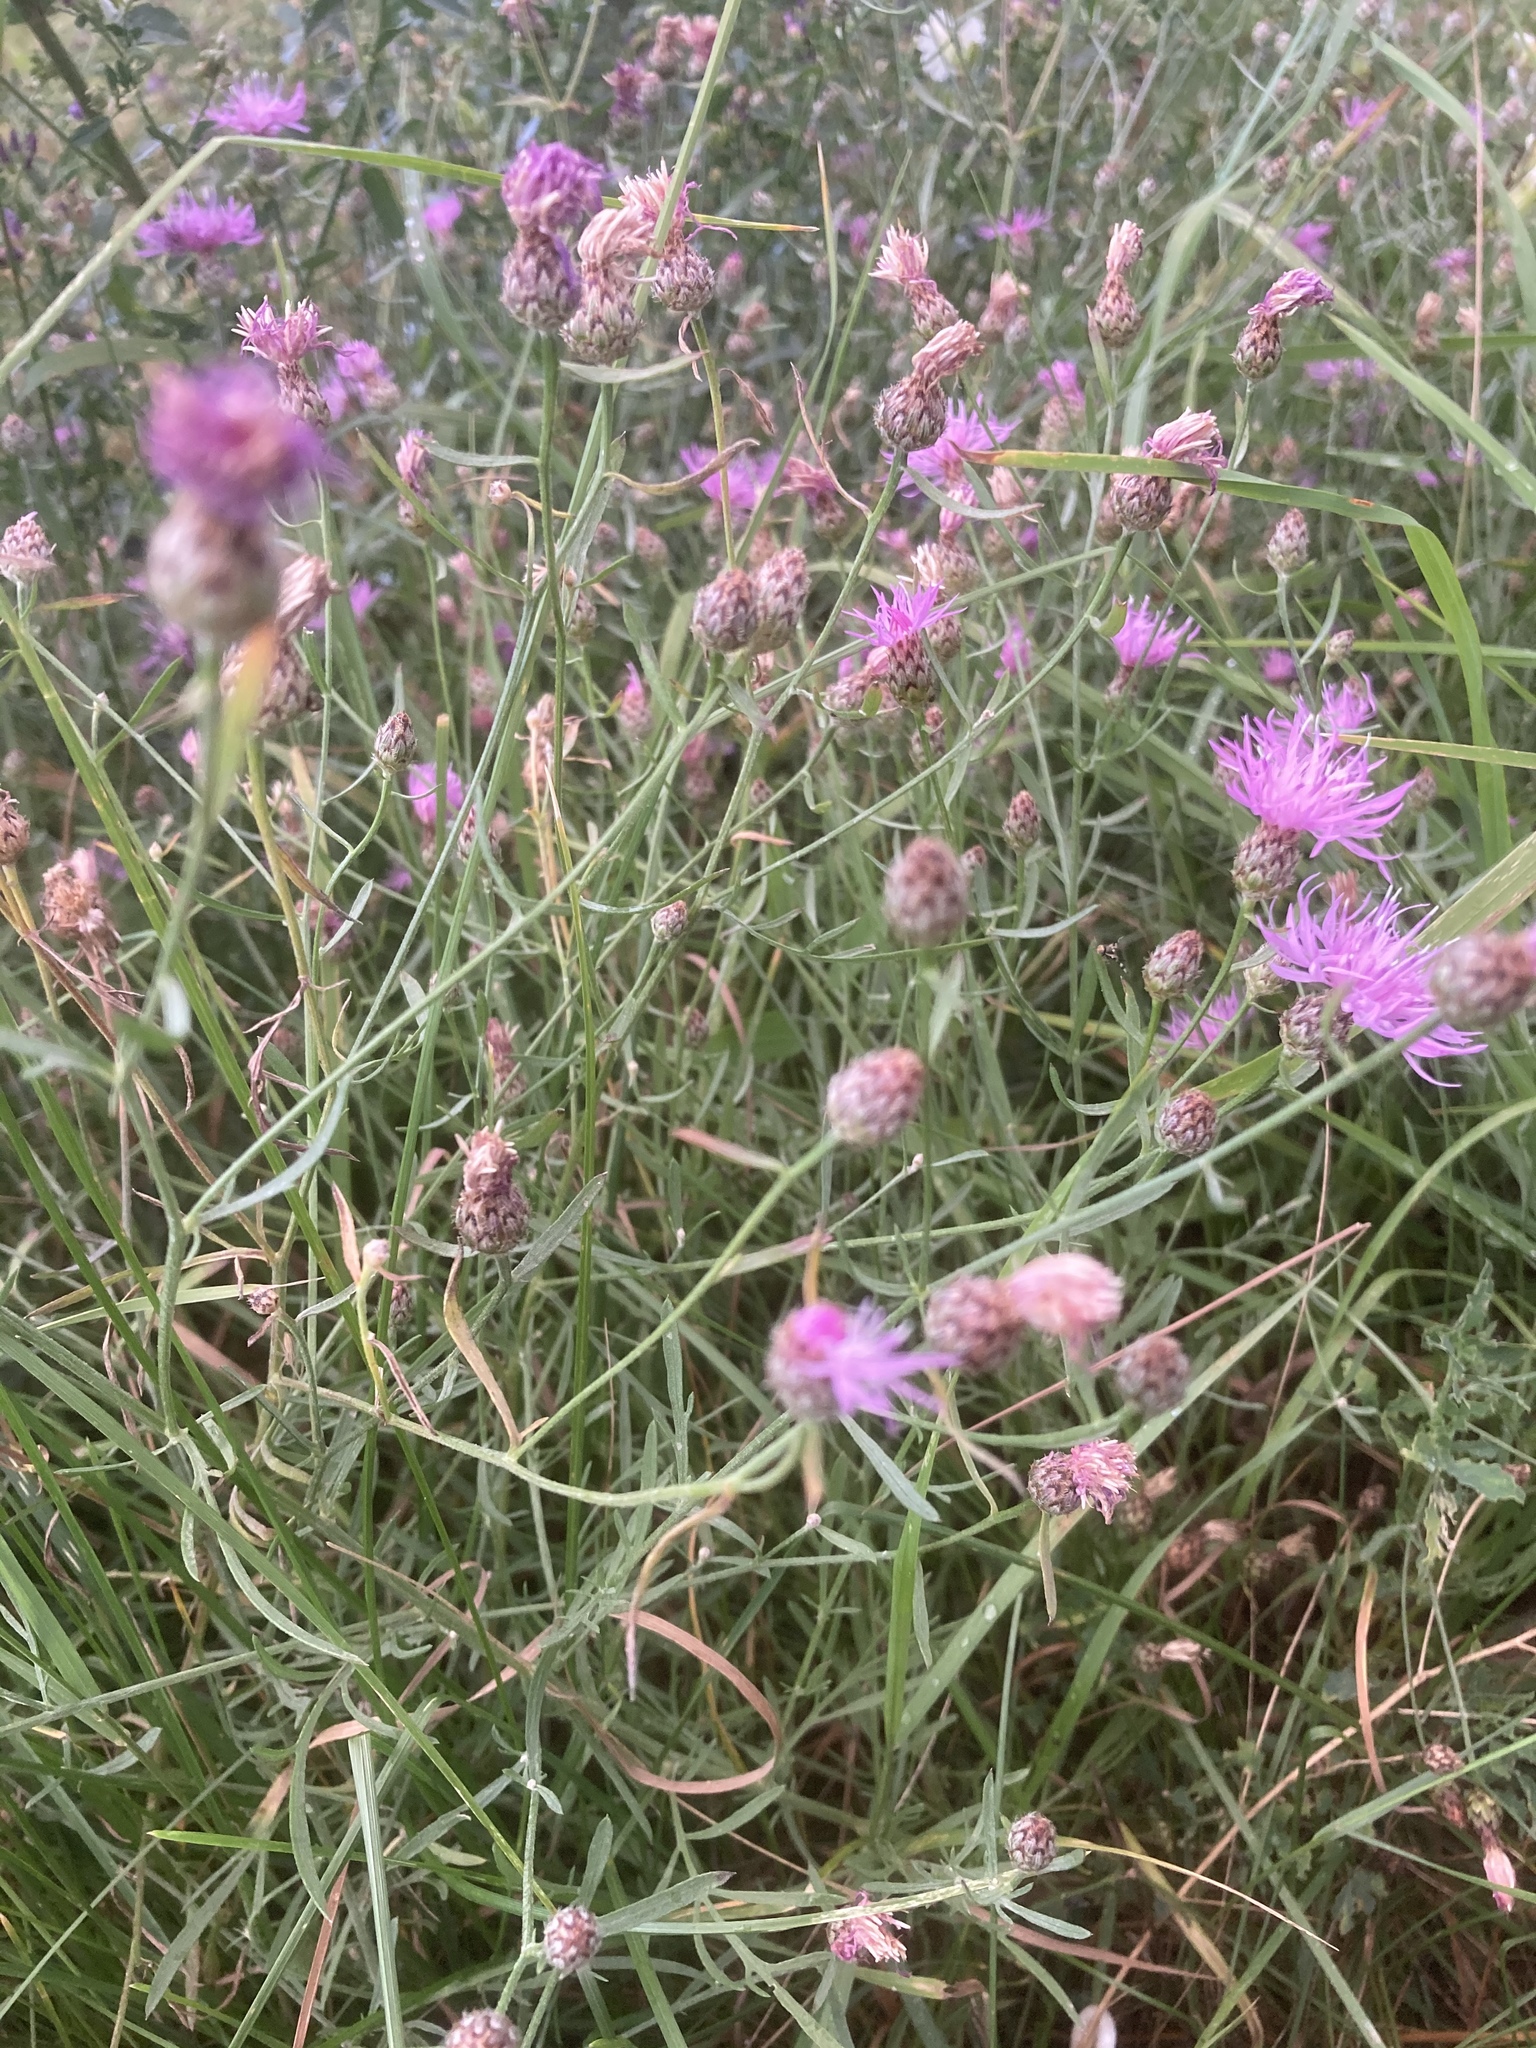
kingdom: Plantae
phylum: Tracheophyta
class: Magnoliopsida
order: Asterales
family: Asteraceae
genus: Centaurea
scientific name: Centaurea stoebe
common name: Spotted knapweed
